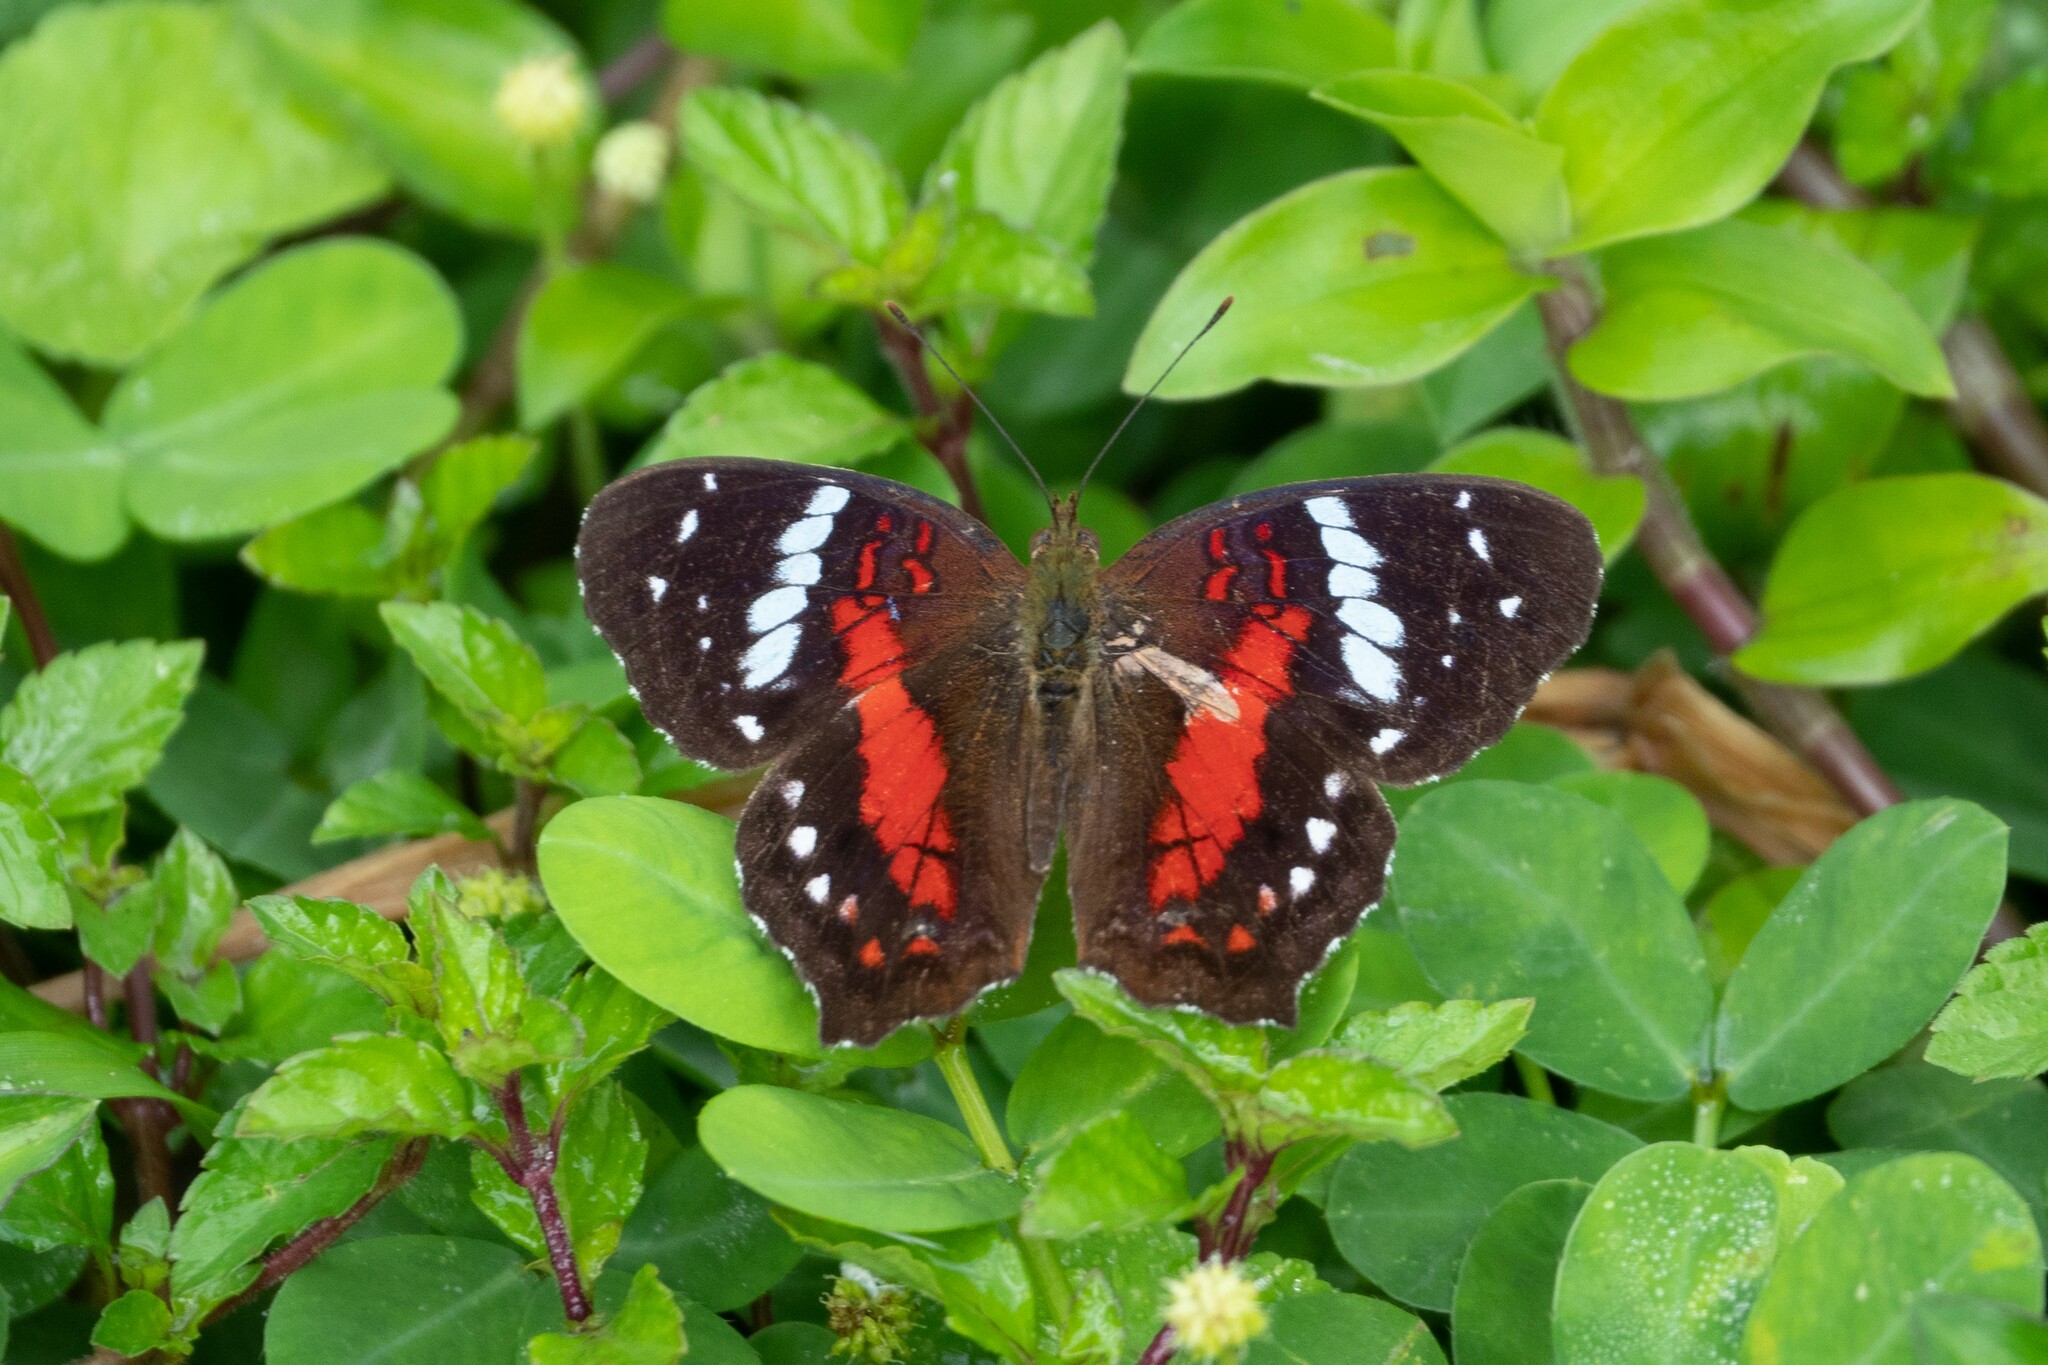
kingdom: Animalia
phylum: Arthropoda
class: Insecta
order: Lepidoptera
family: Nymphalidae
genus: Anartia
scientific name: Anartia amathea
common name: Red peacock
